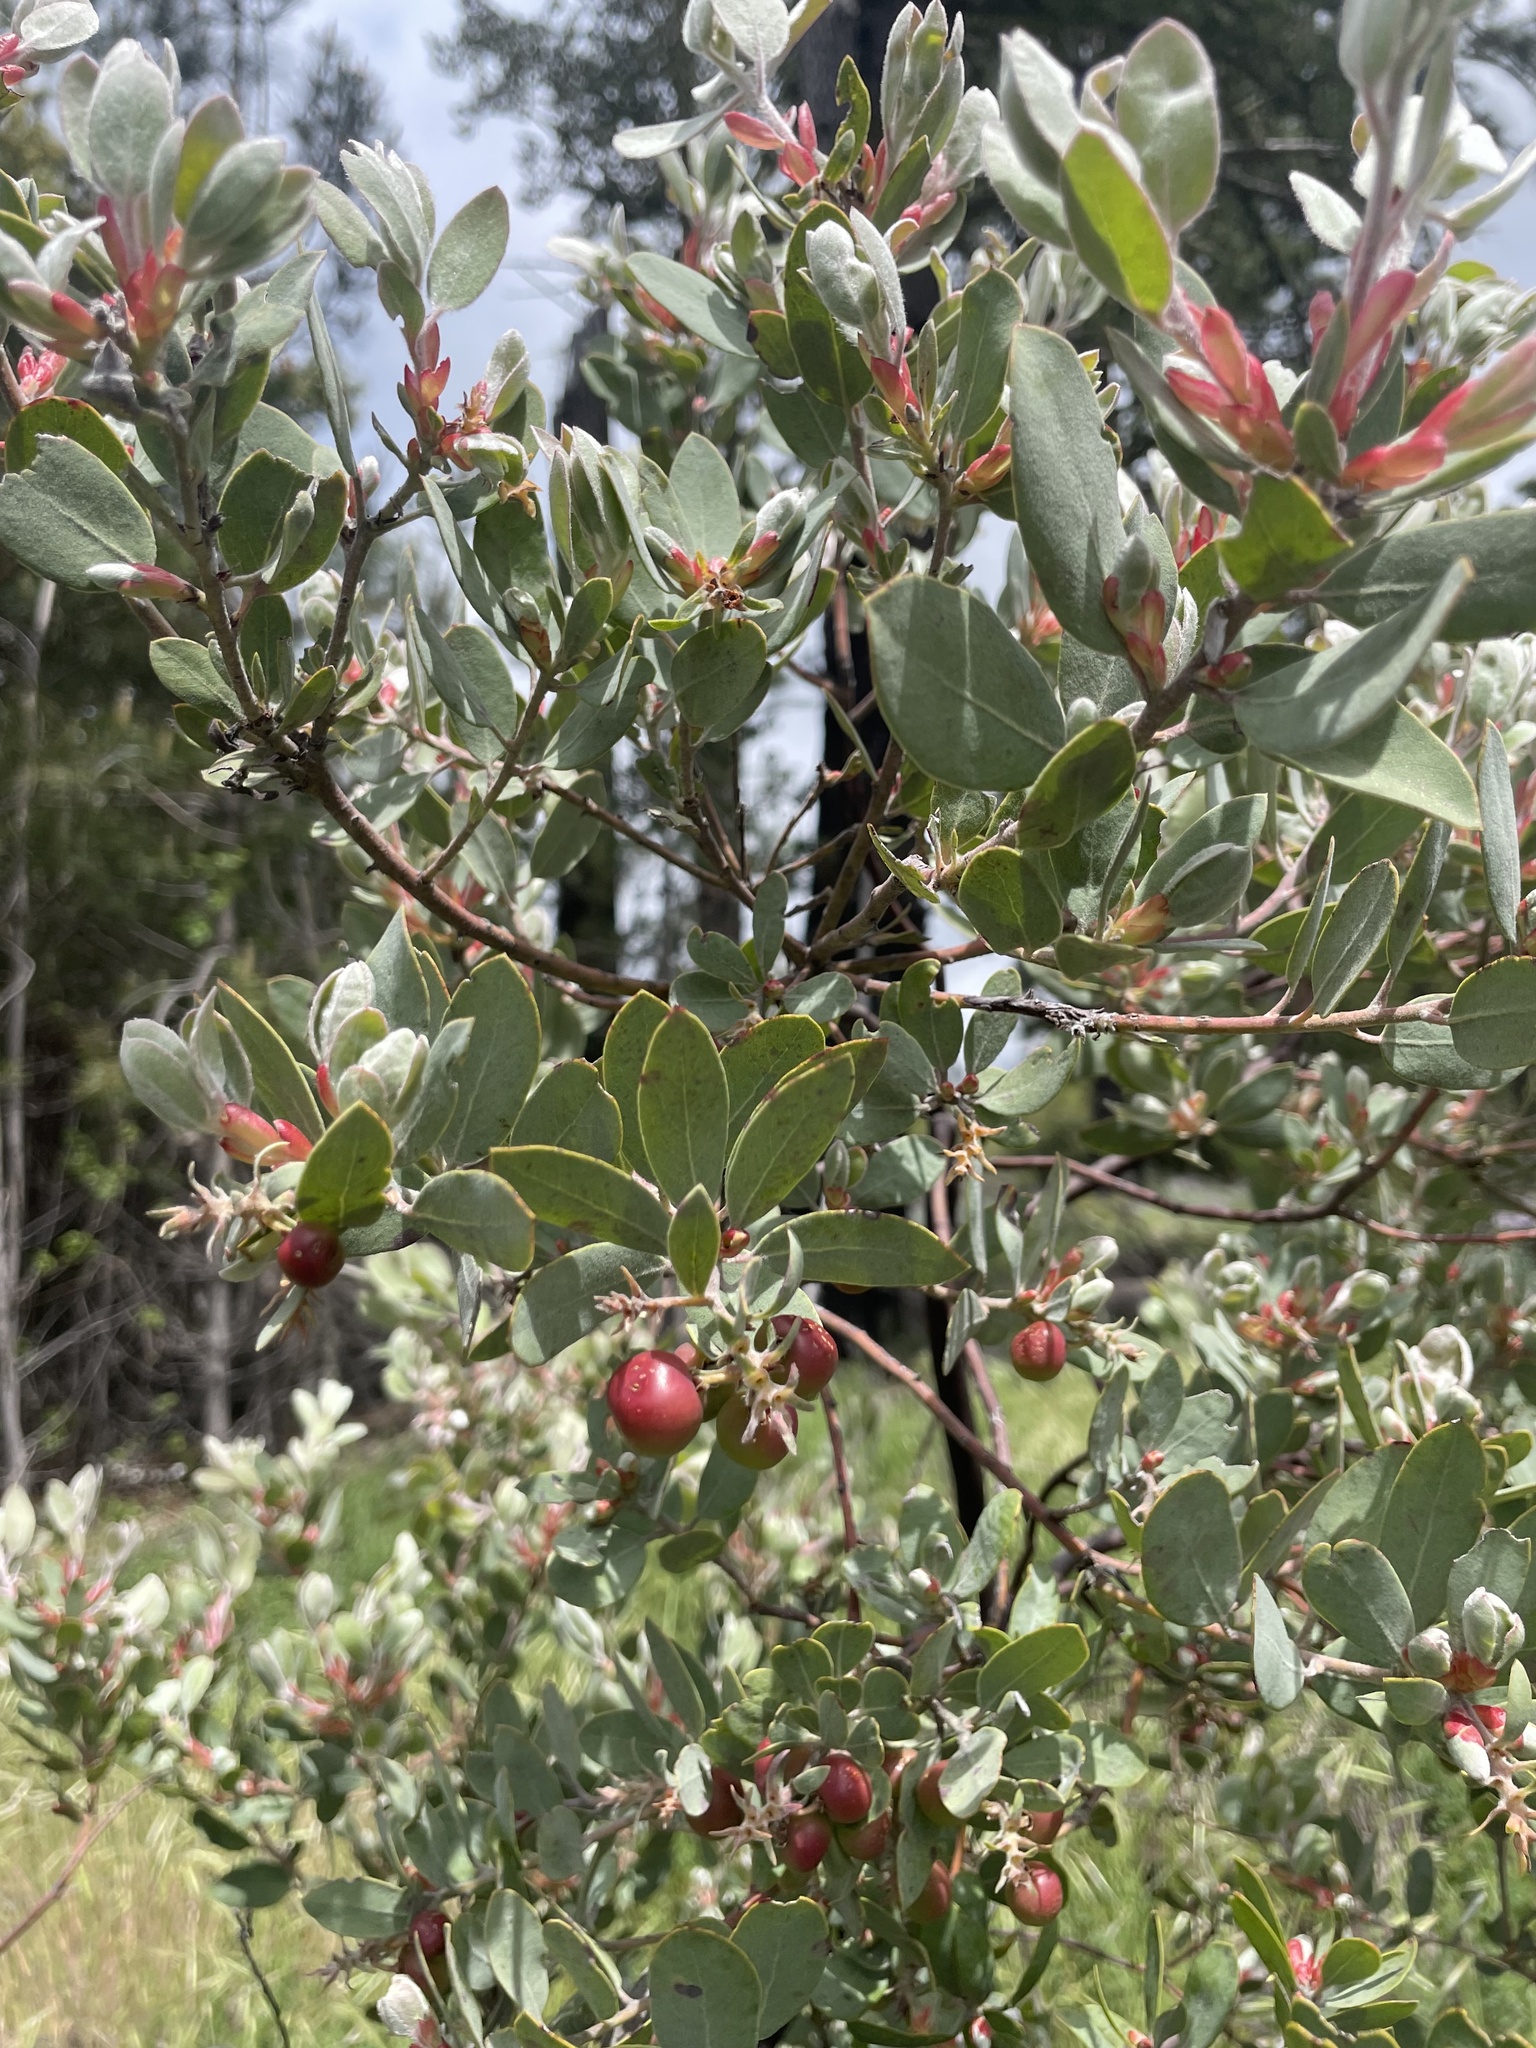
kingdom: Plantae
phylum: Tracheophyta
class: Magnoliopsida
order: Ericales
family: Ericaceae
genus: Arctostaphylos
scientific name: Arctostaphylos silvicola
